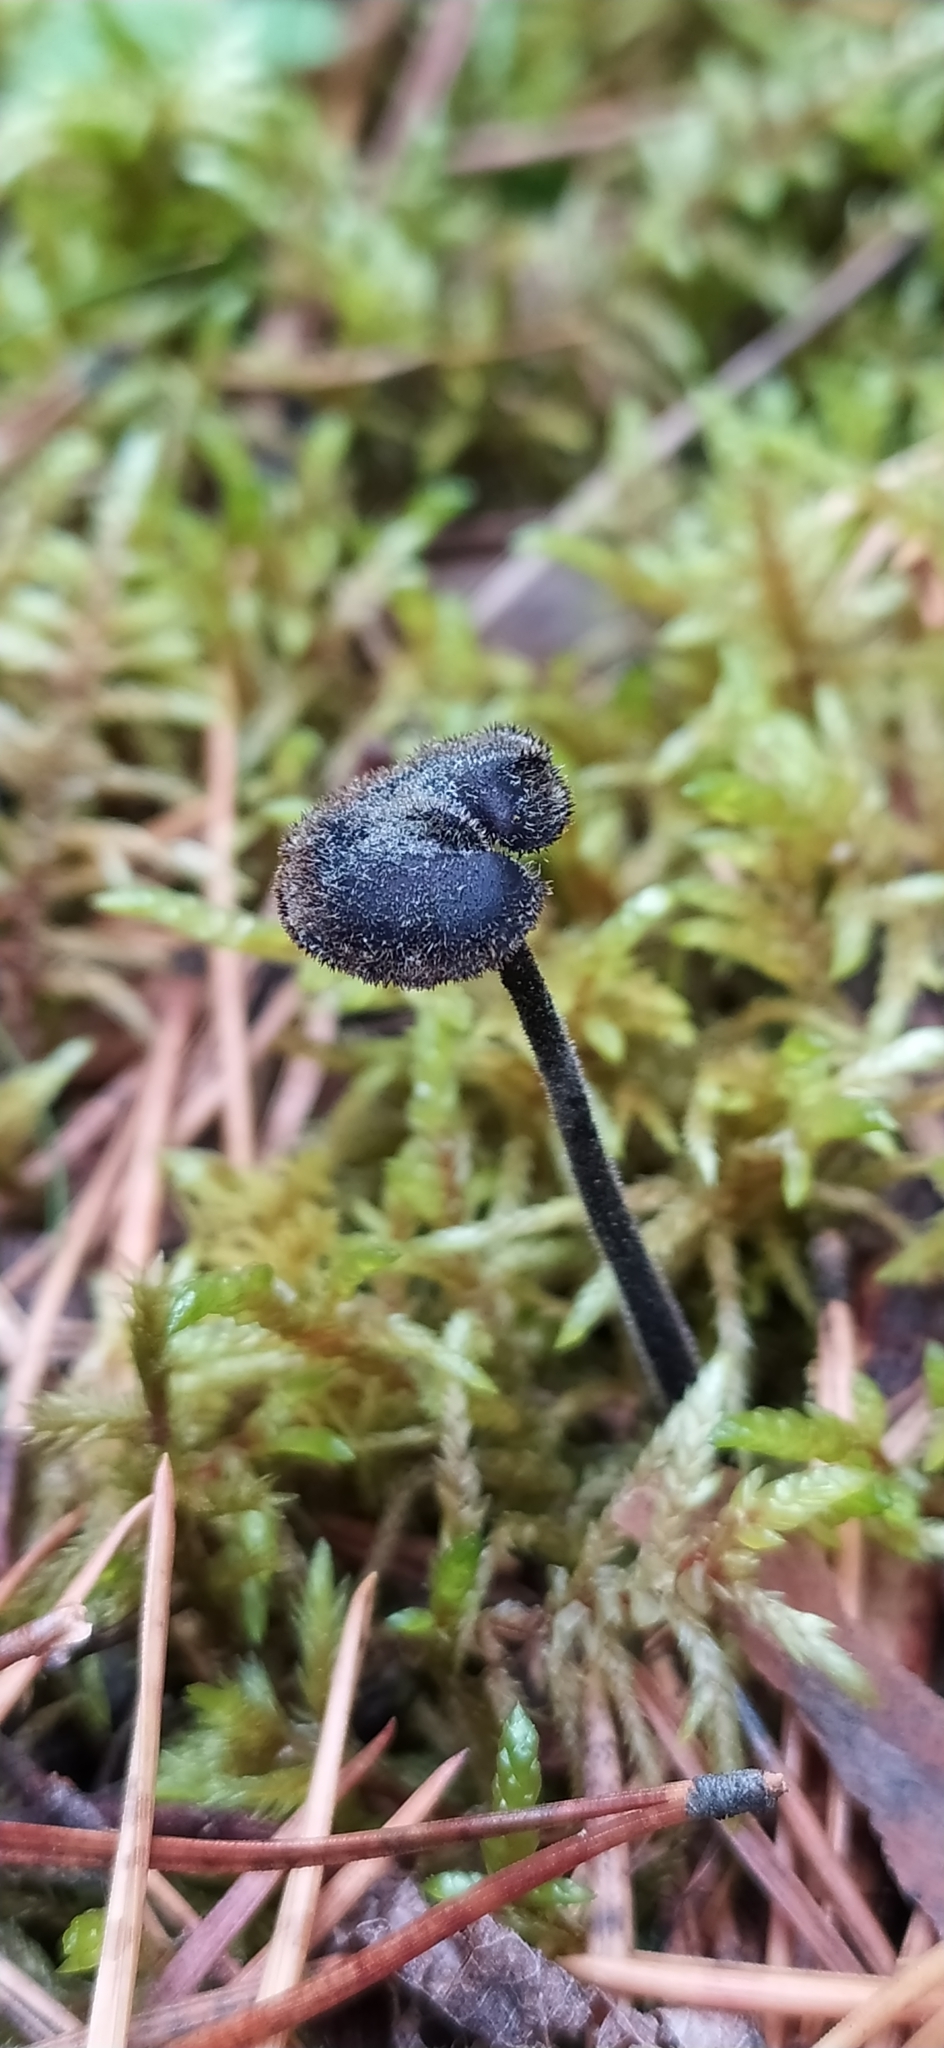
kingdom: Fungi
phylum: Basidiomycota
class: Agaricomycetes
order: Russulales
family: Auriscalpiaceae
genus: Auriscalpium
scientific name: Auriscalpium vulgare
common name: Earpick fungus
